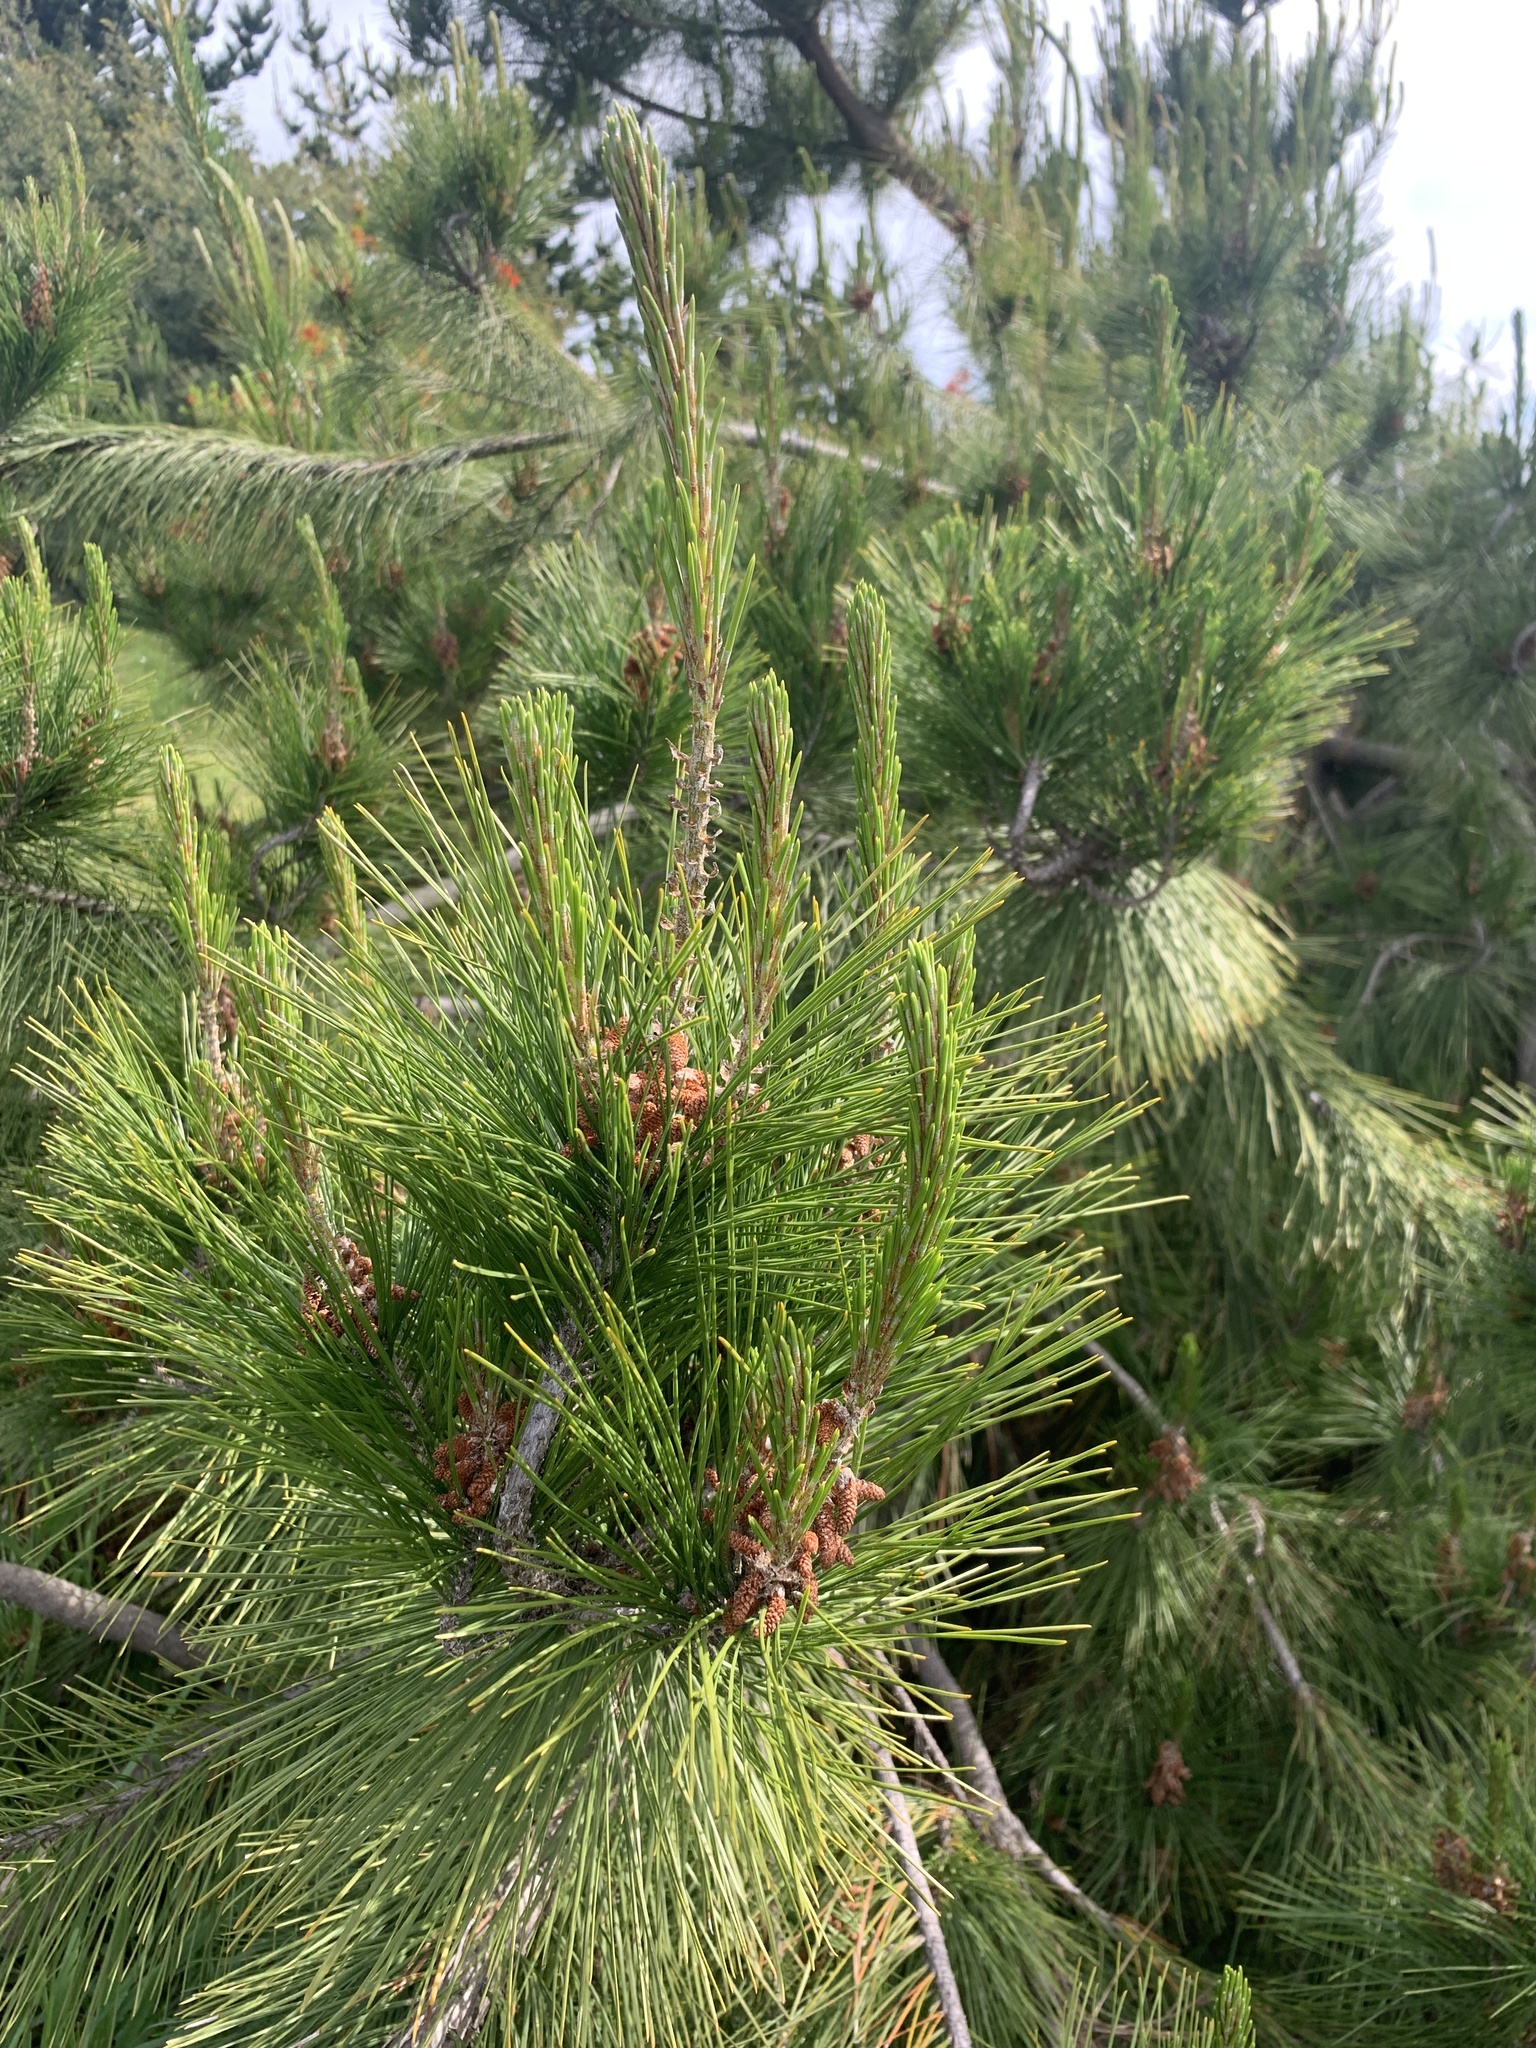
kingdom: Plantae
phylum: Tracheophyta
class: Pinopsida
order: Pinales
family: Pinaceae
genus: Pinus
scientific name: Pinus radiata
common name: Monterey pine
